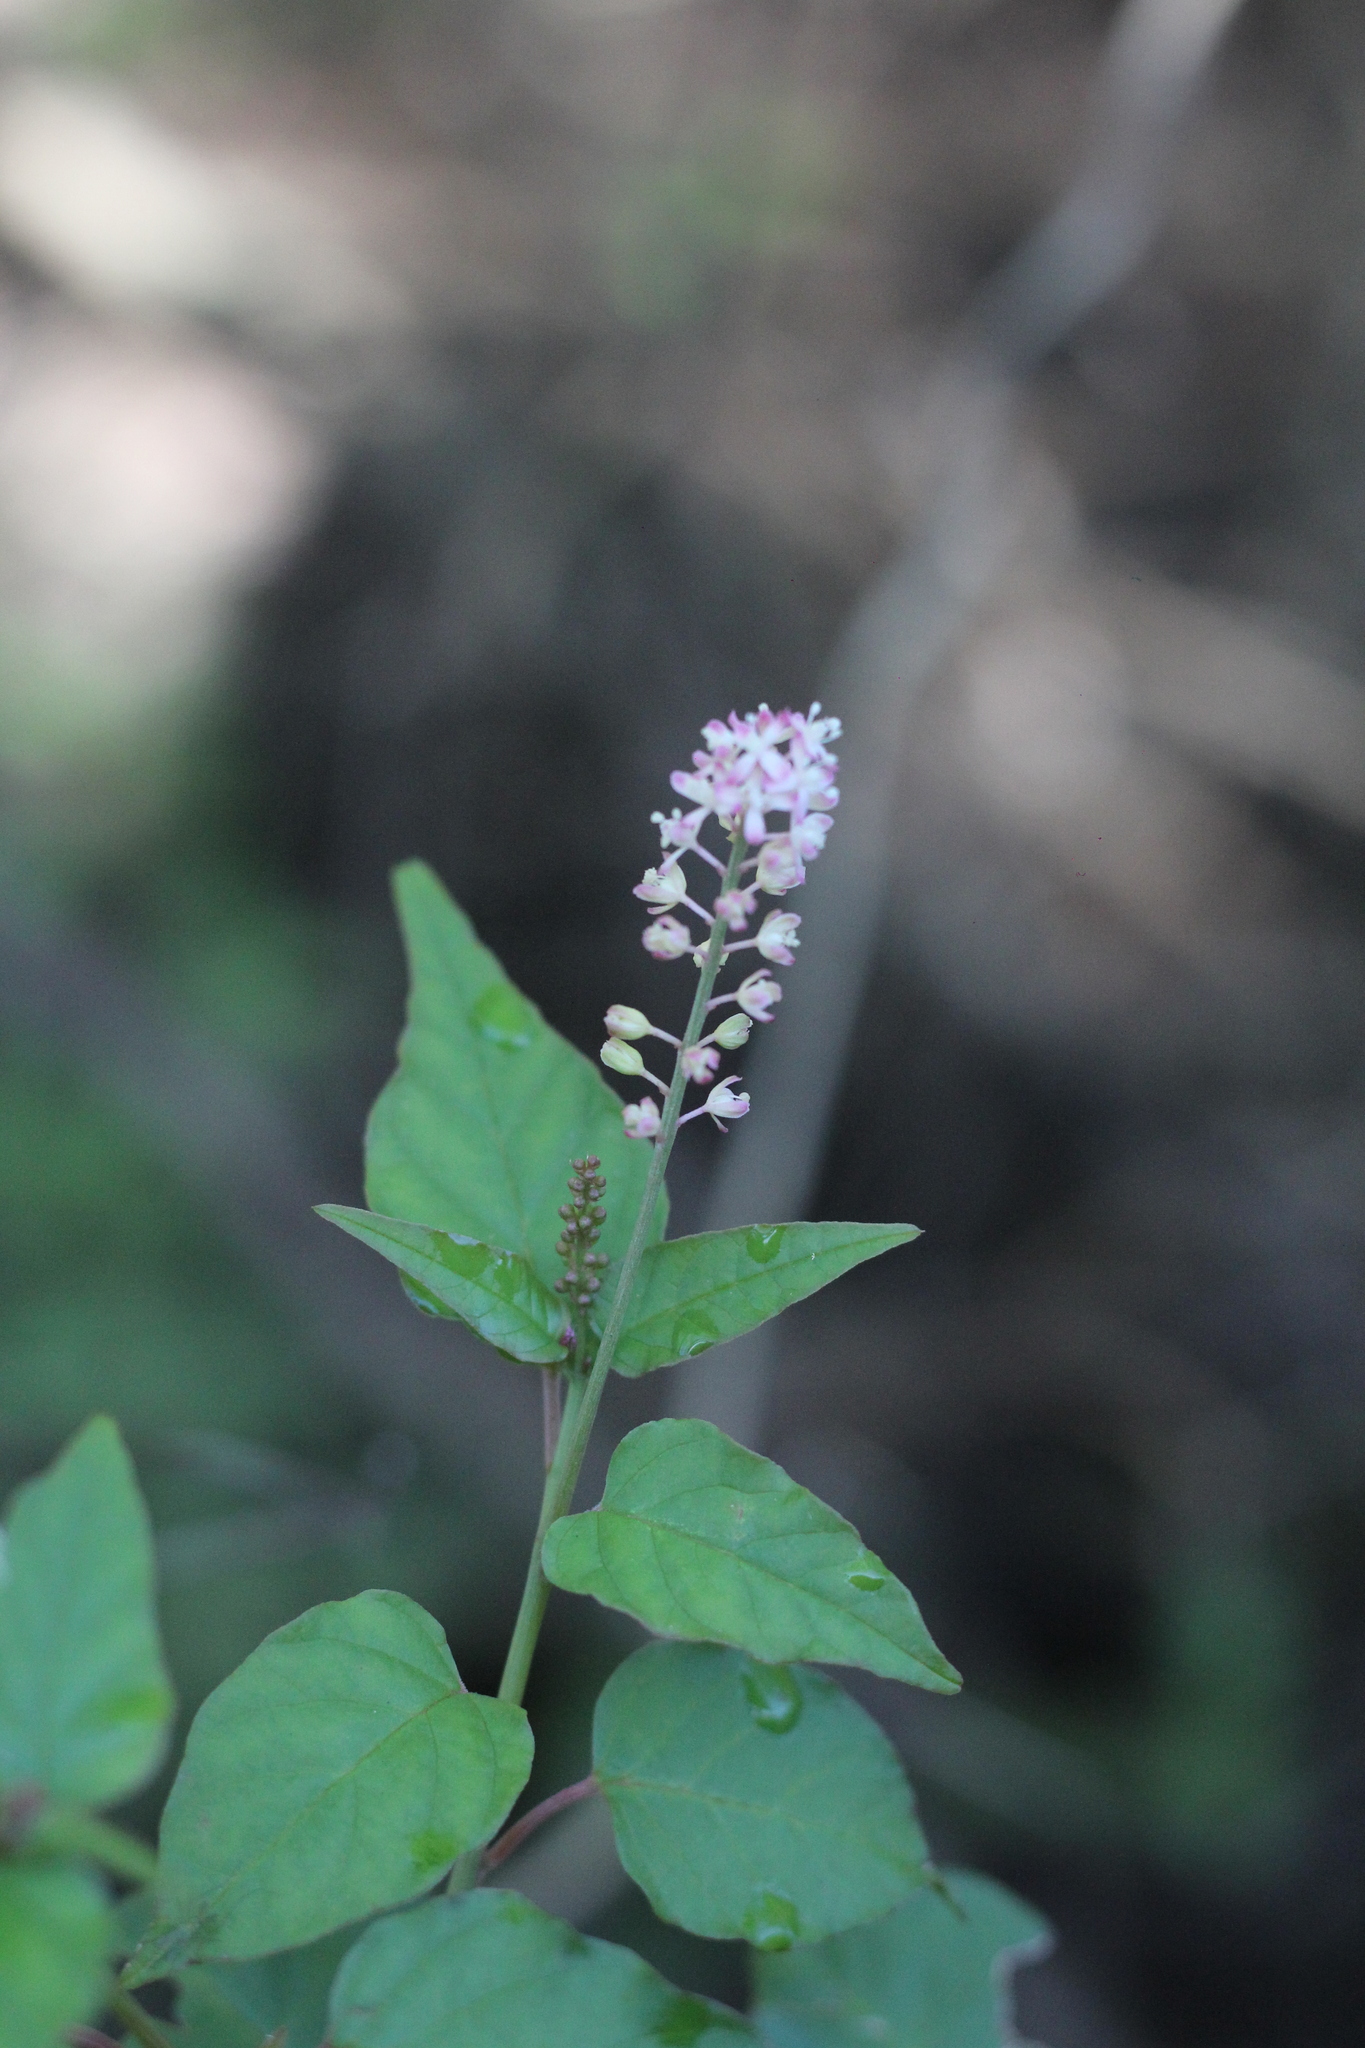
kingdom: Plantae
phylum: Tracheophyta
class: Magnoliopsida
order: Caryophyllales
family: Phytolaccaceae
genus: Rivina
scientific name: Rivina humilis
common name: Rougeplant
